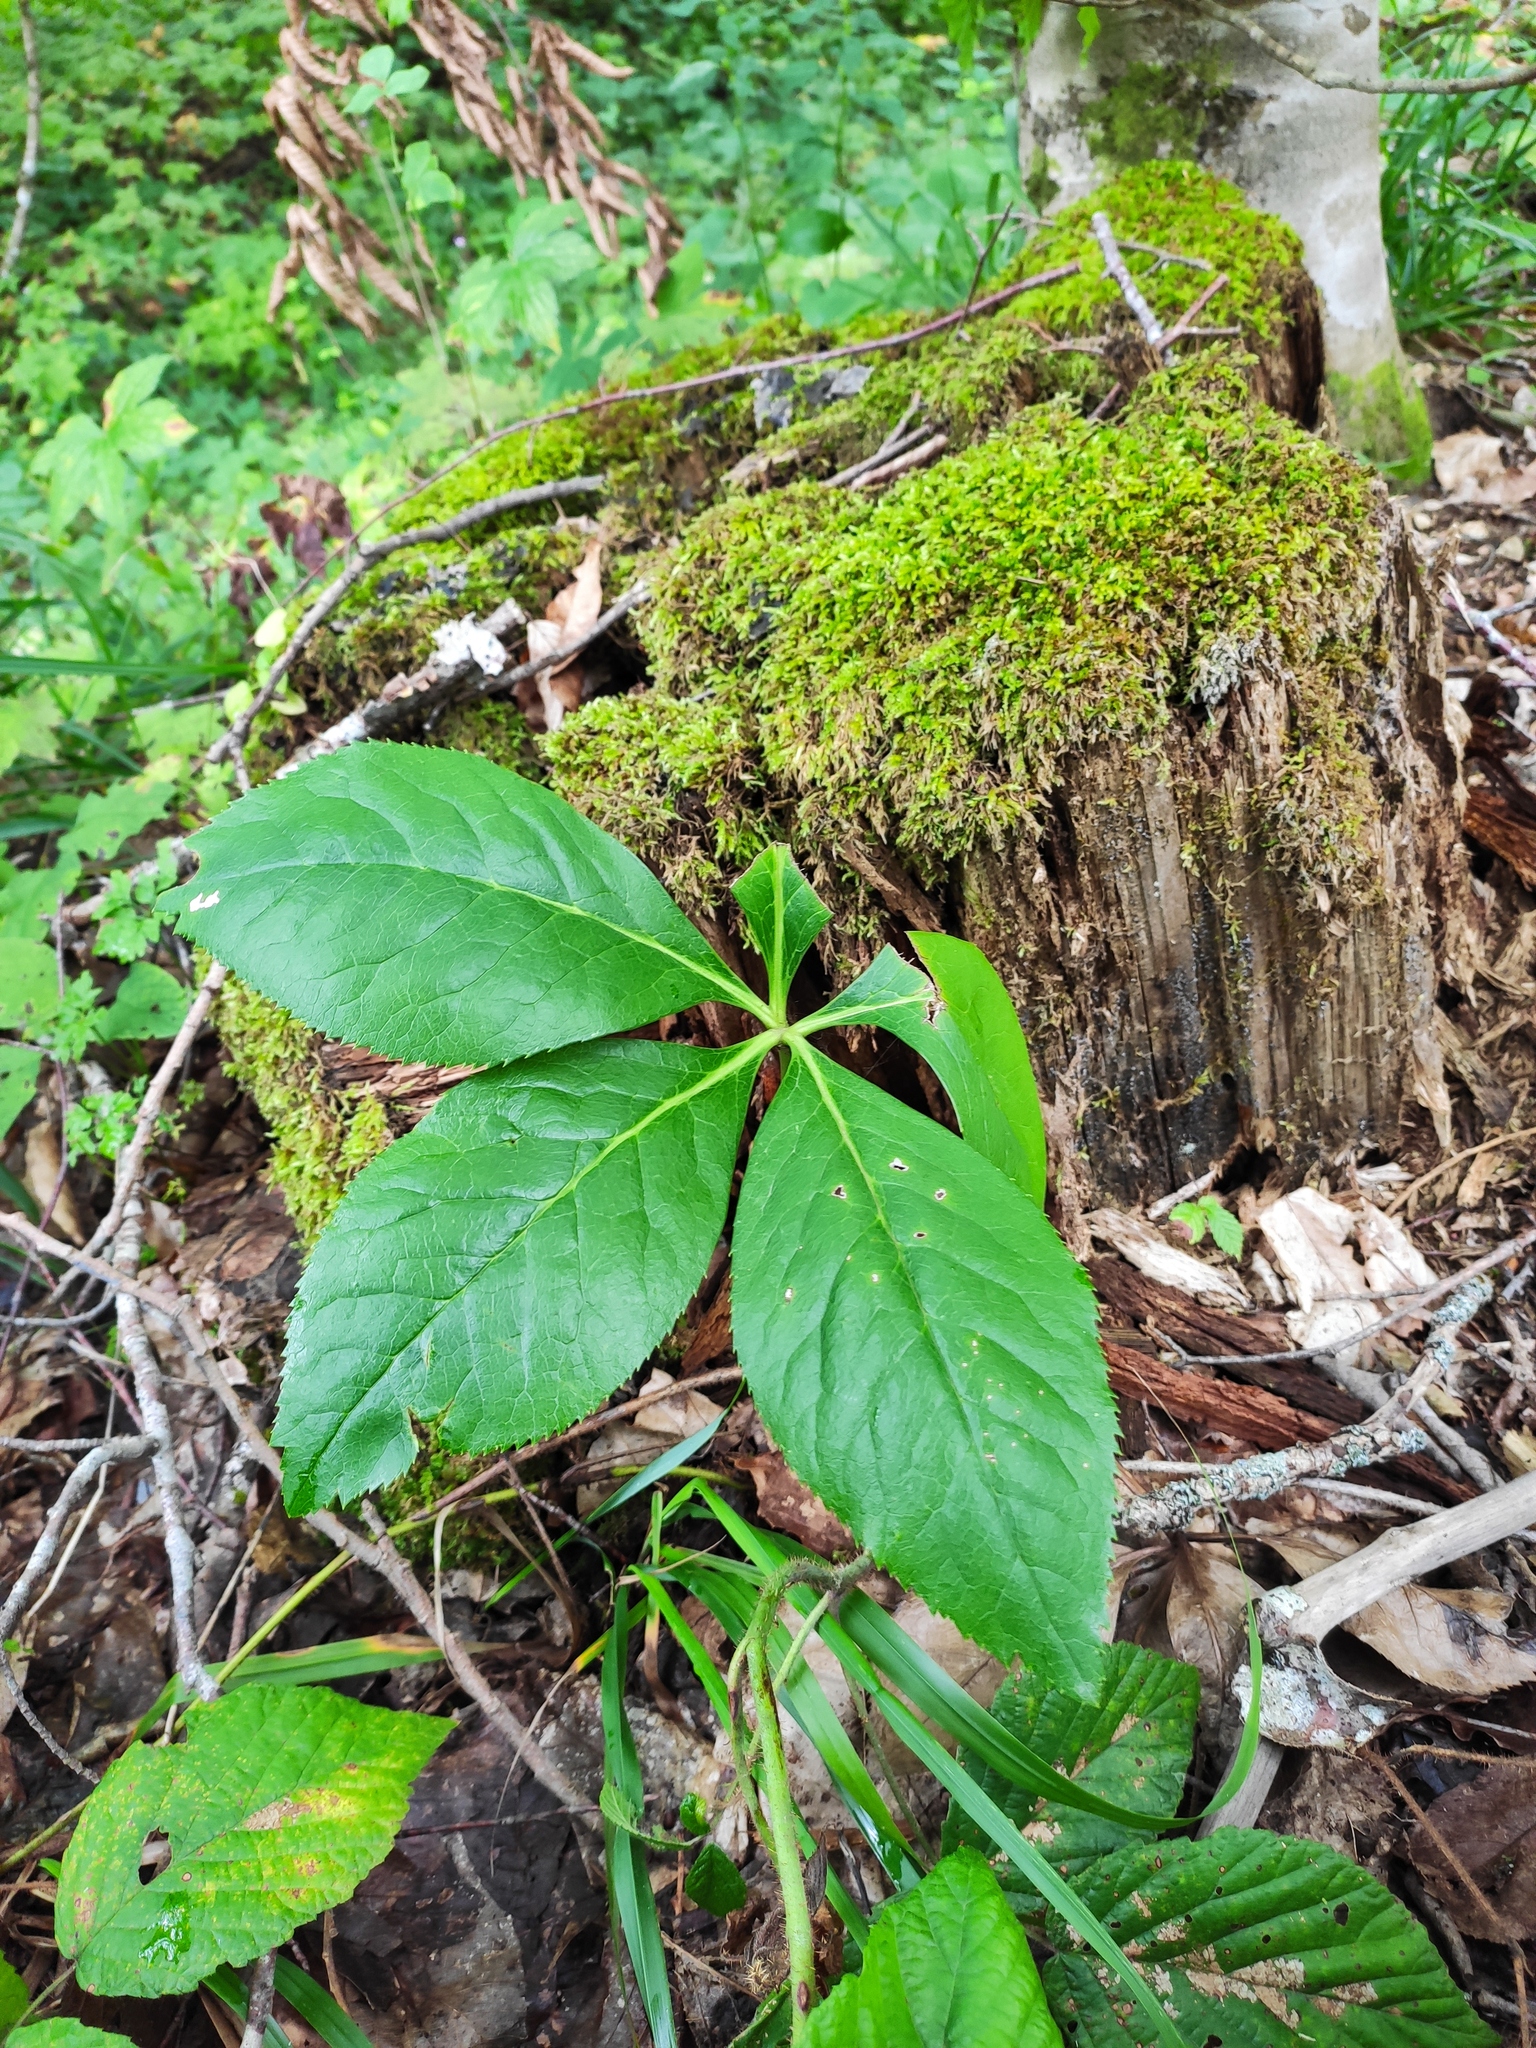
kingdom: Plantae
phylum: Tracheophyta
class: Magnoliopsida
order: Ranunculales
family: Ranunculaceae
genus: Helleborus
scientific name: Helleborus orientalis
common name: Lenten-rose
